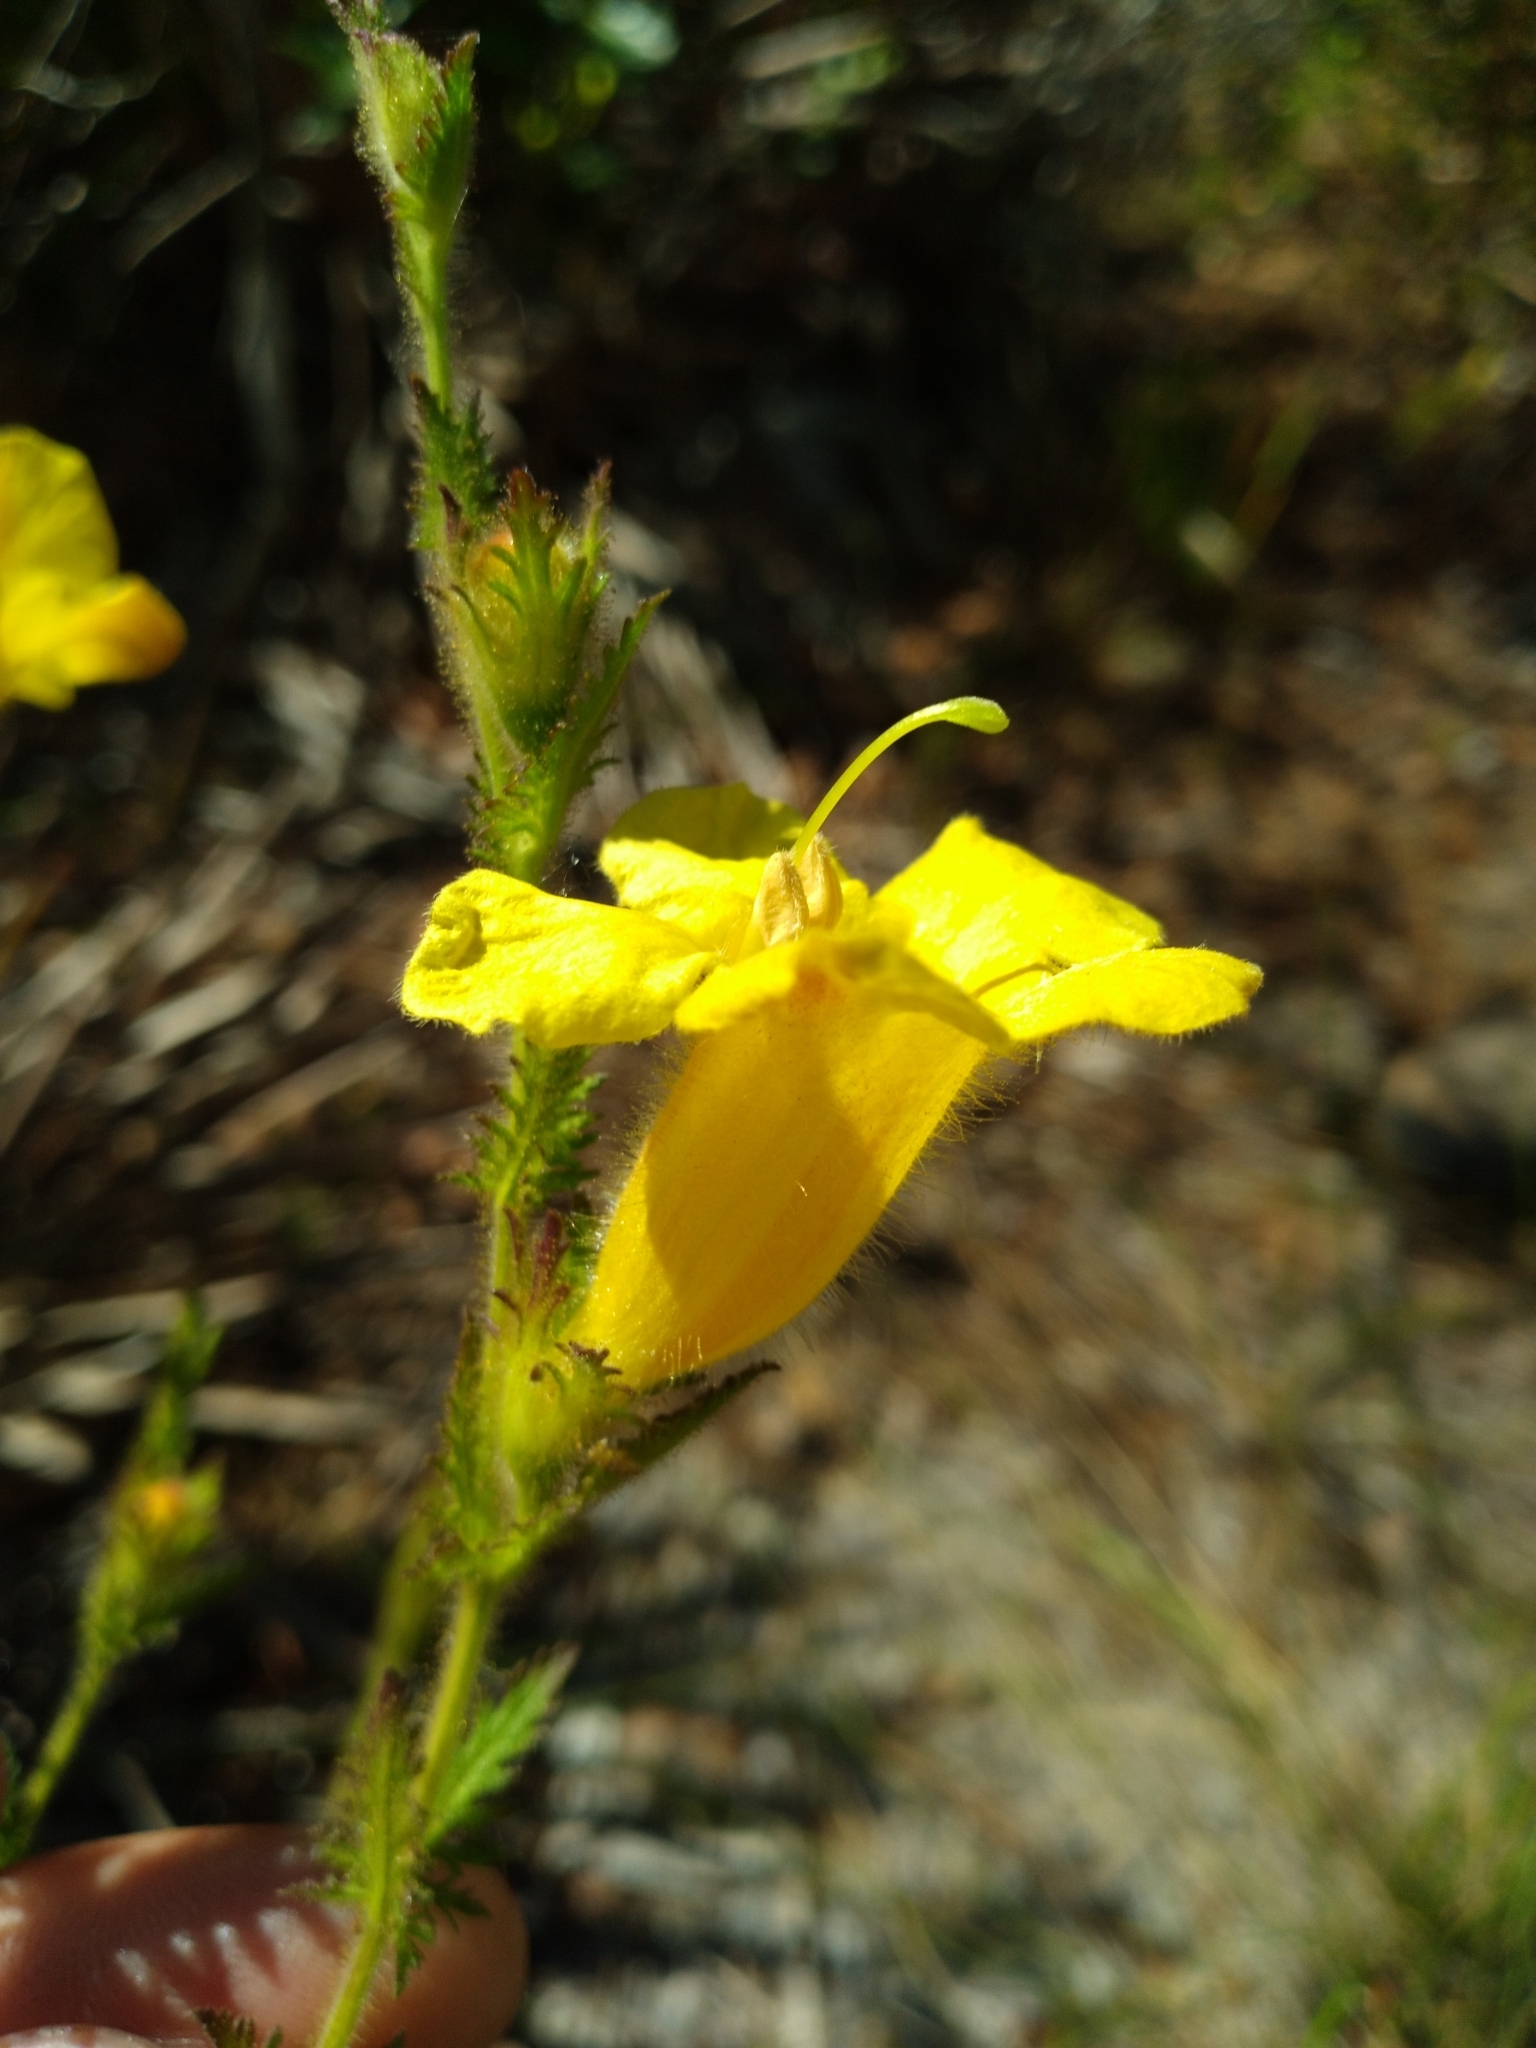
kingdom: Plantae
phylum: Tracheophyta
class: Magnoliopsida
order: Lamiales
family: Orobanchaceae
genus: Aureolaria
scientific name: Aureolaria pectinata
